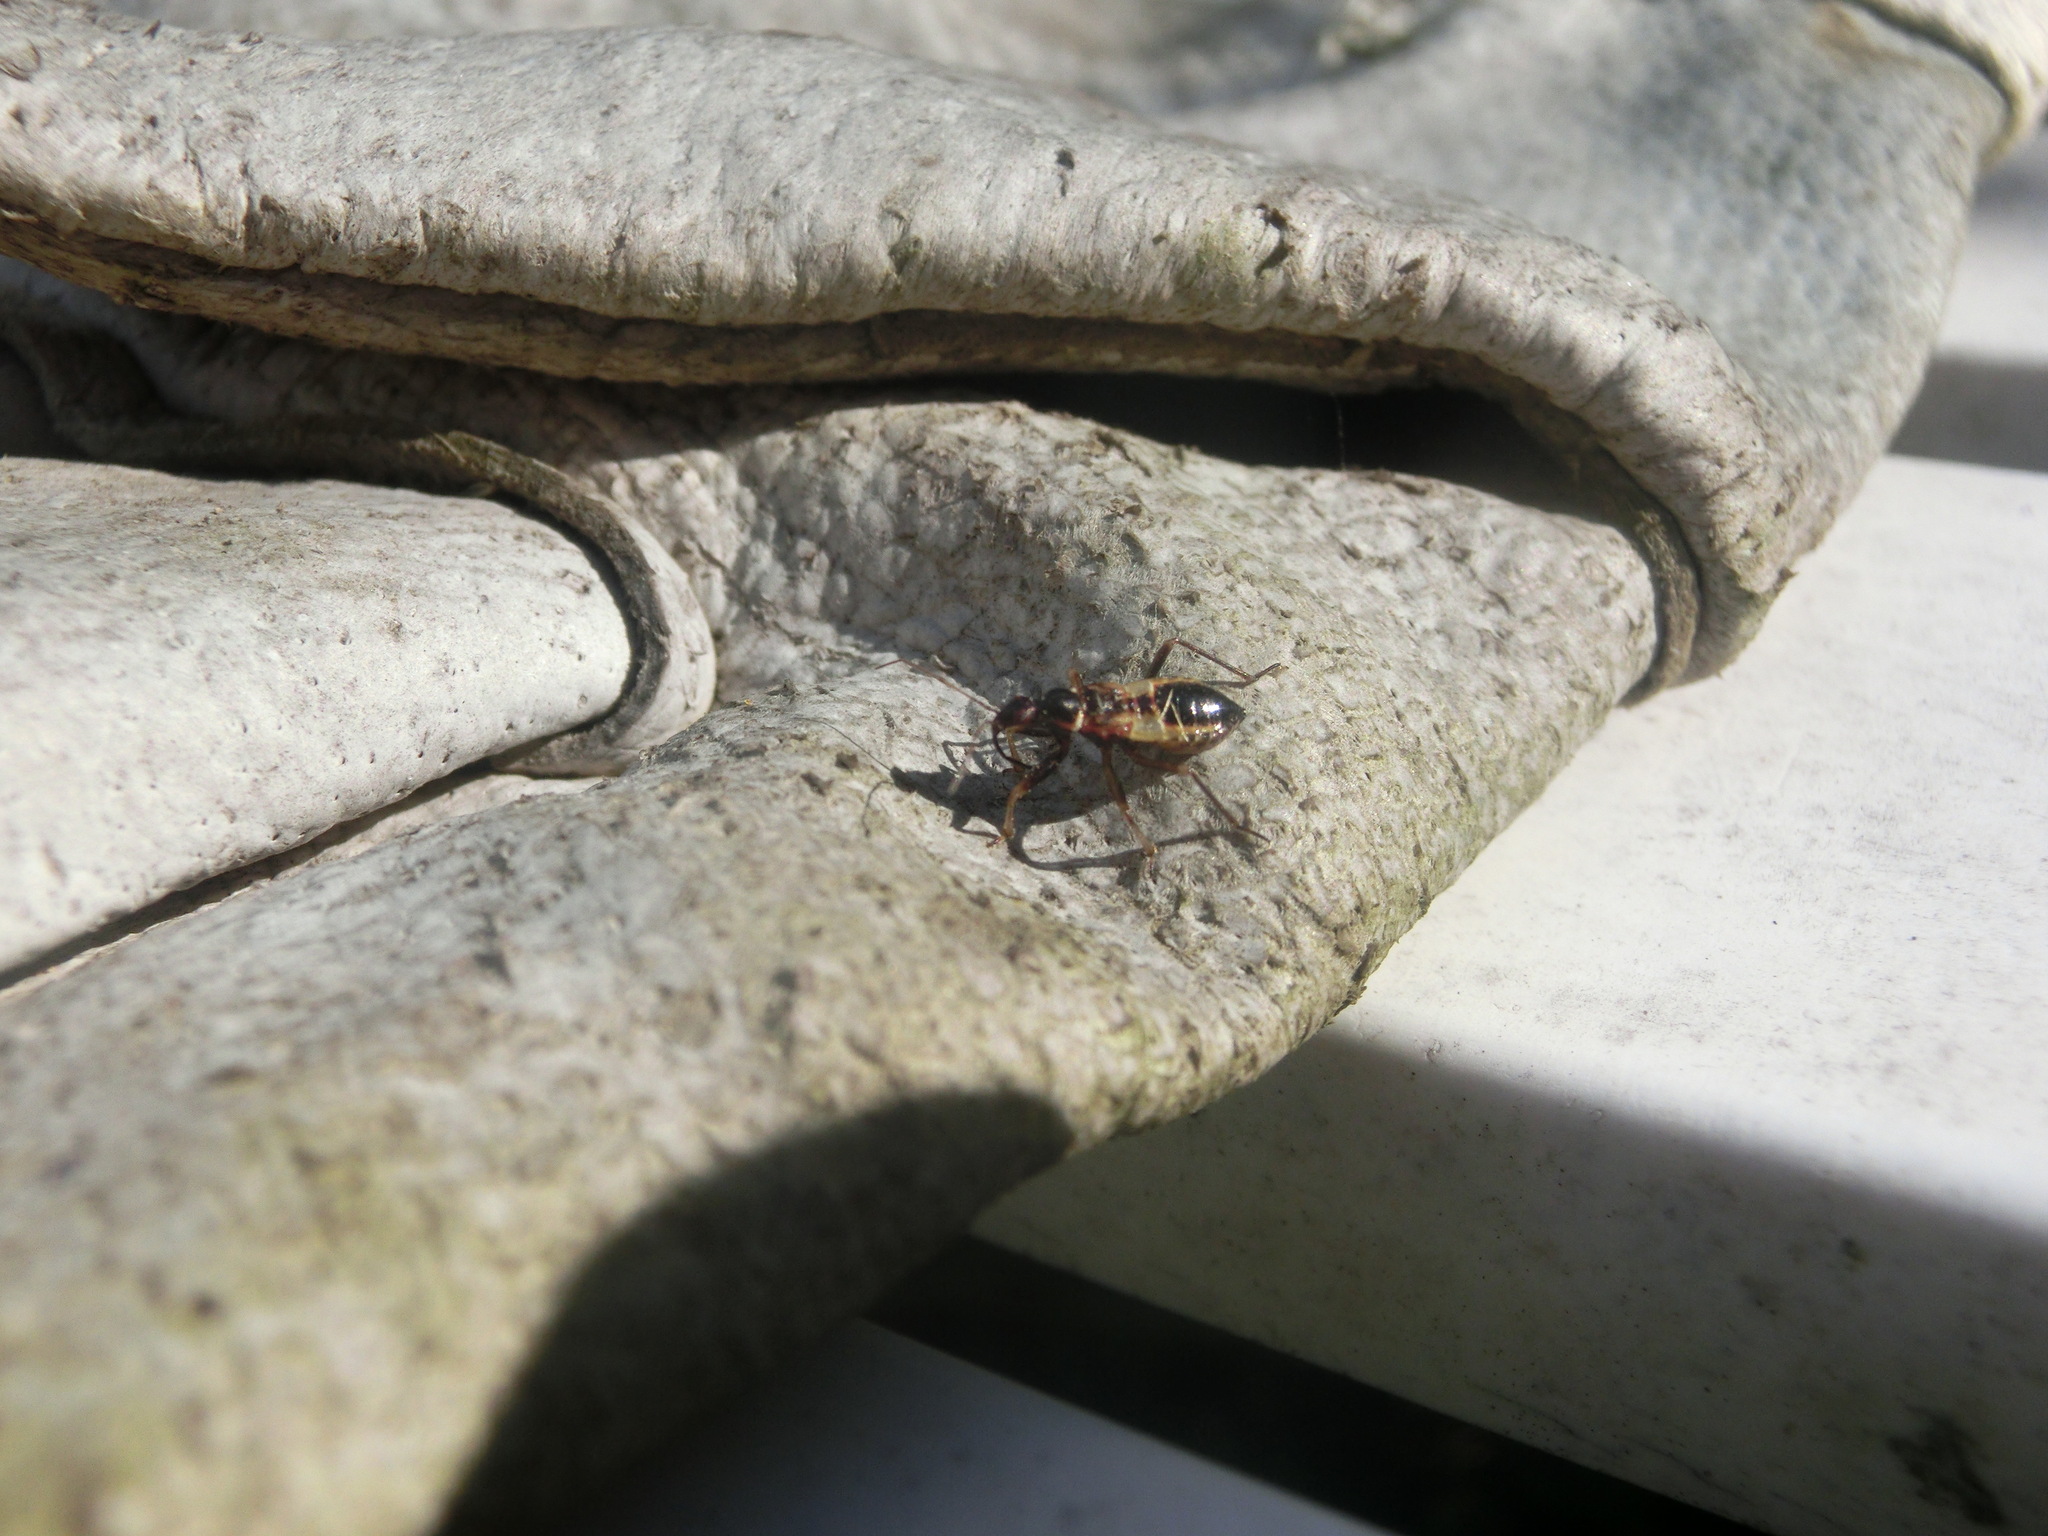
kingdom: Animalia
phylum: Arthropoda
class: Insecta
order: Hemiptera
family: Nabidae
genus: Himacerus
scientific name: Himacerus mirmicoides
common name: Ant damsel bug
